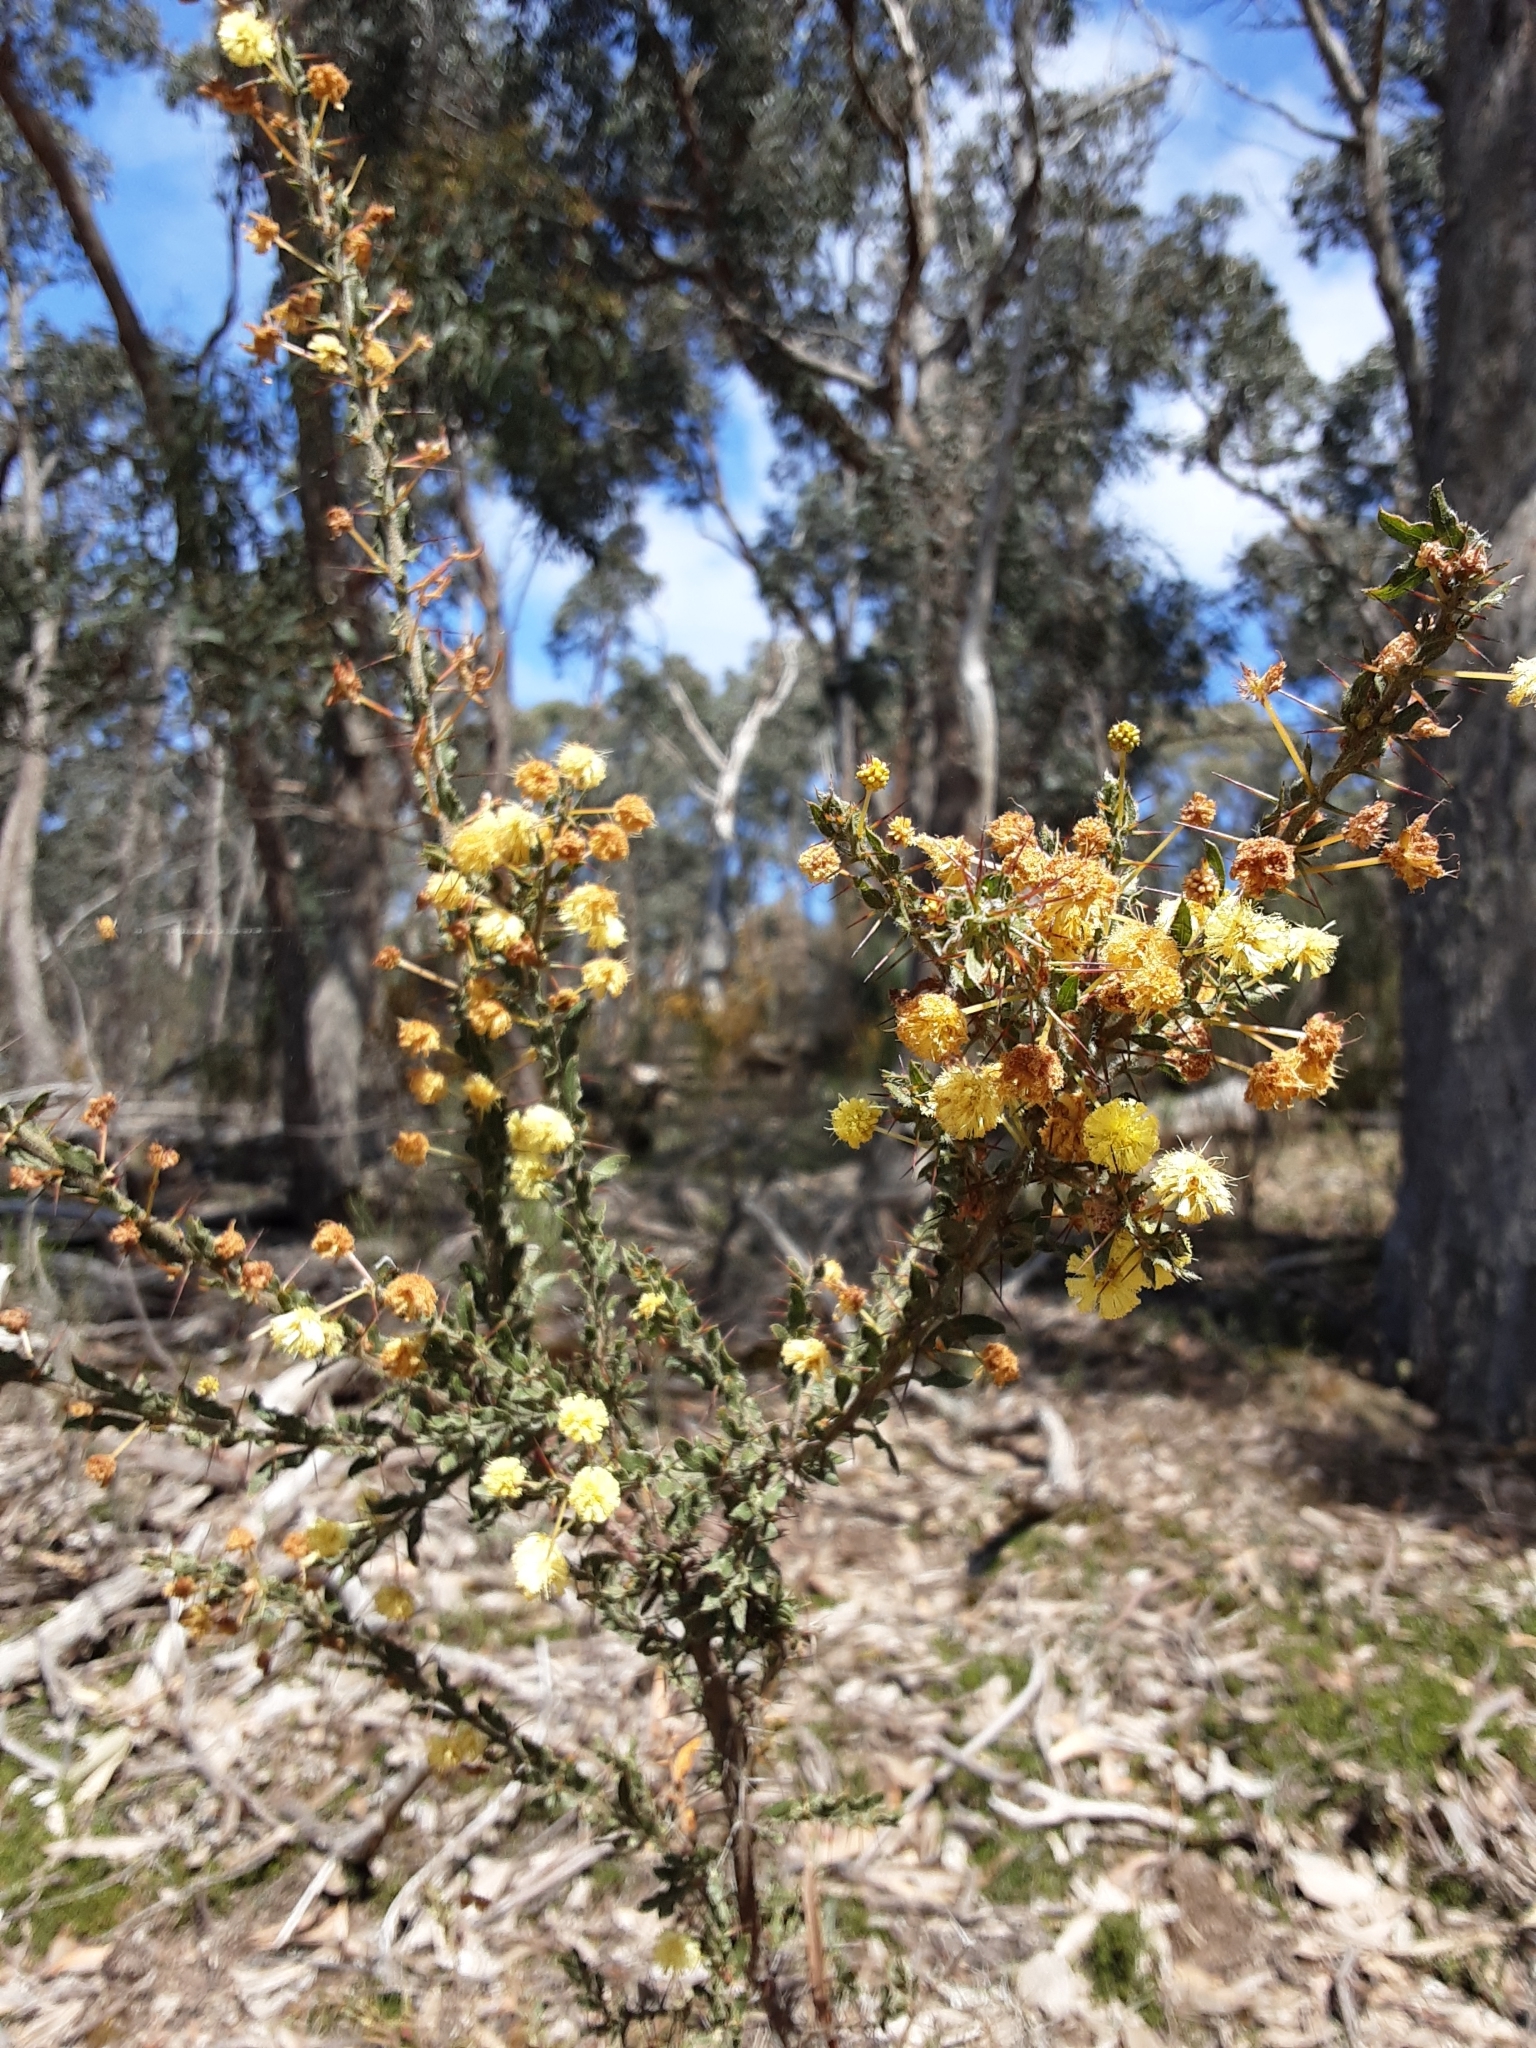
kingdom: Plantae
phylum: Tracheophyta
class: Magnoliopsida
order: Fabales
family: Fabaceae
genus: Acacia
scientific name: Acacia paradoxa
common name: Paradox acacia
